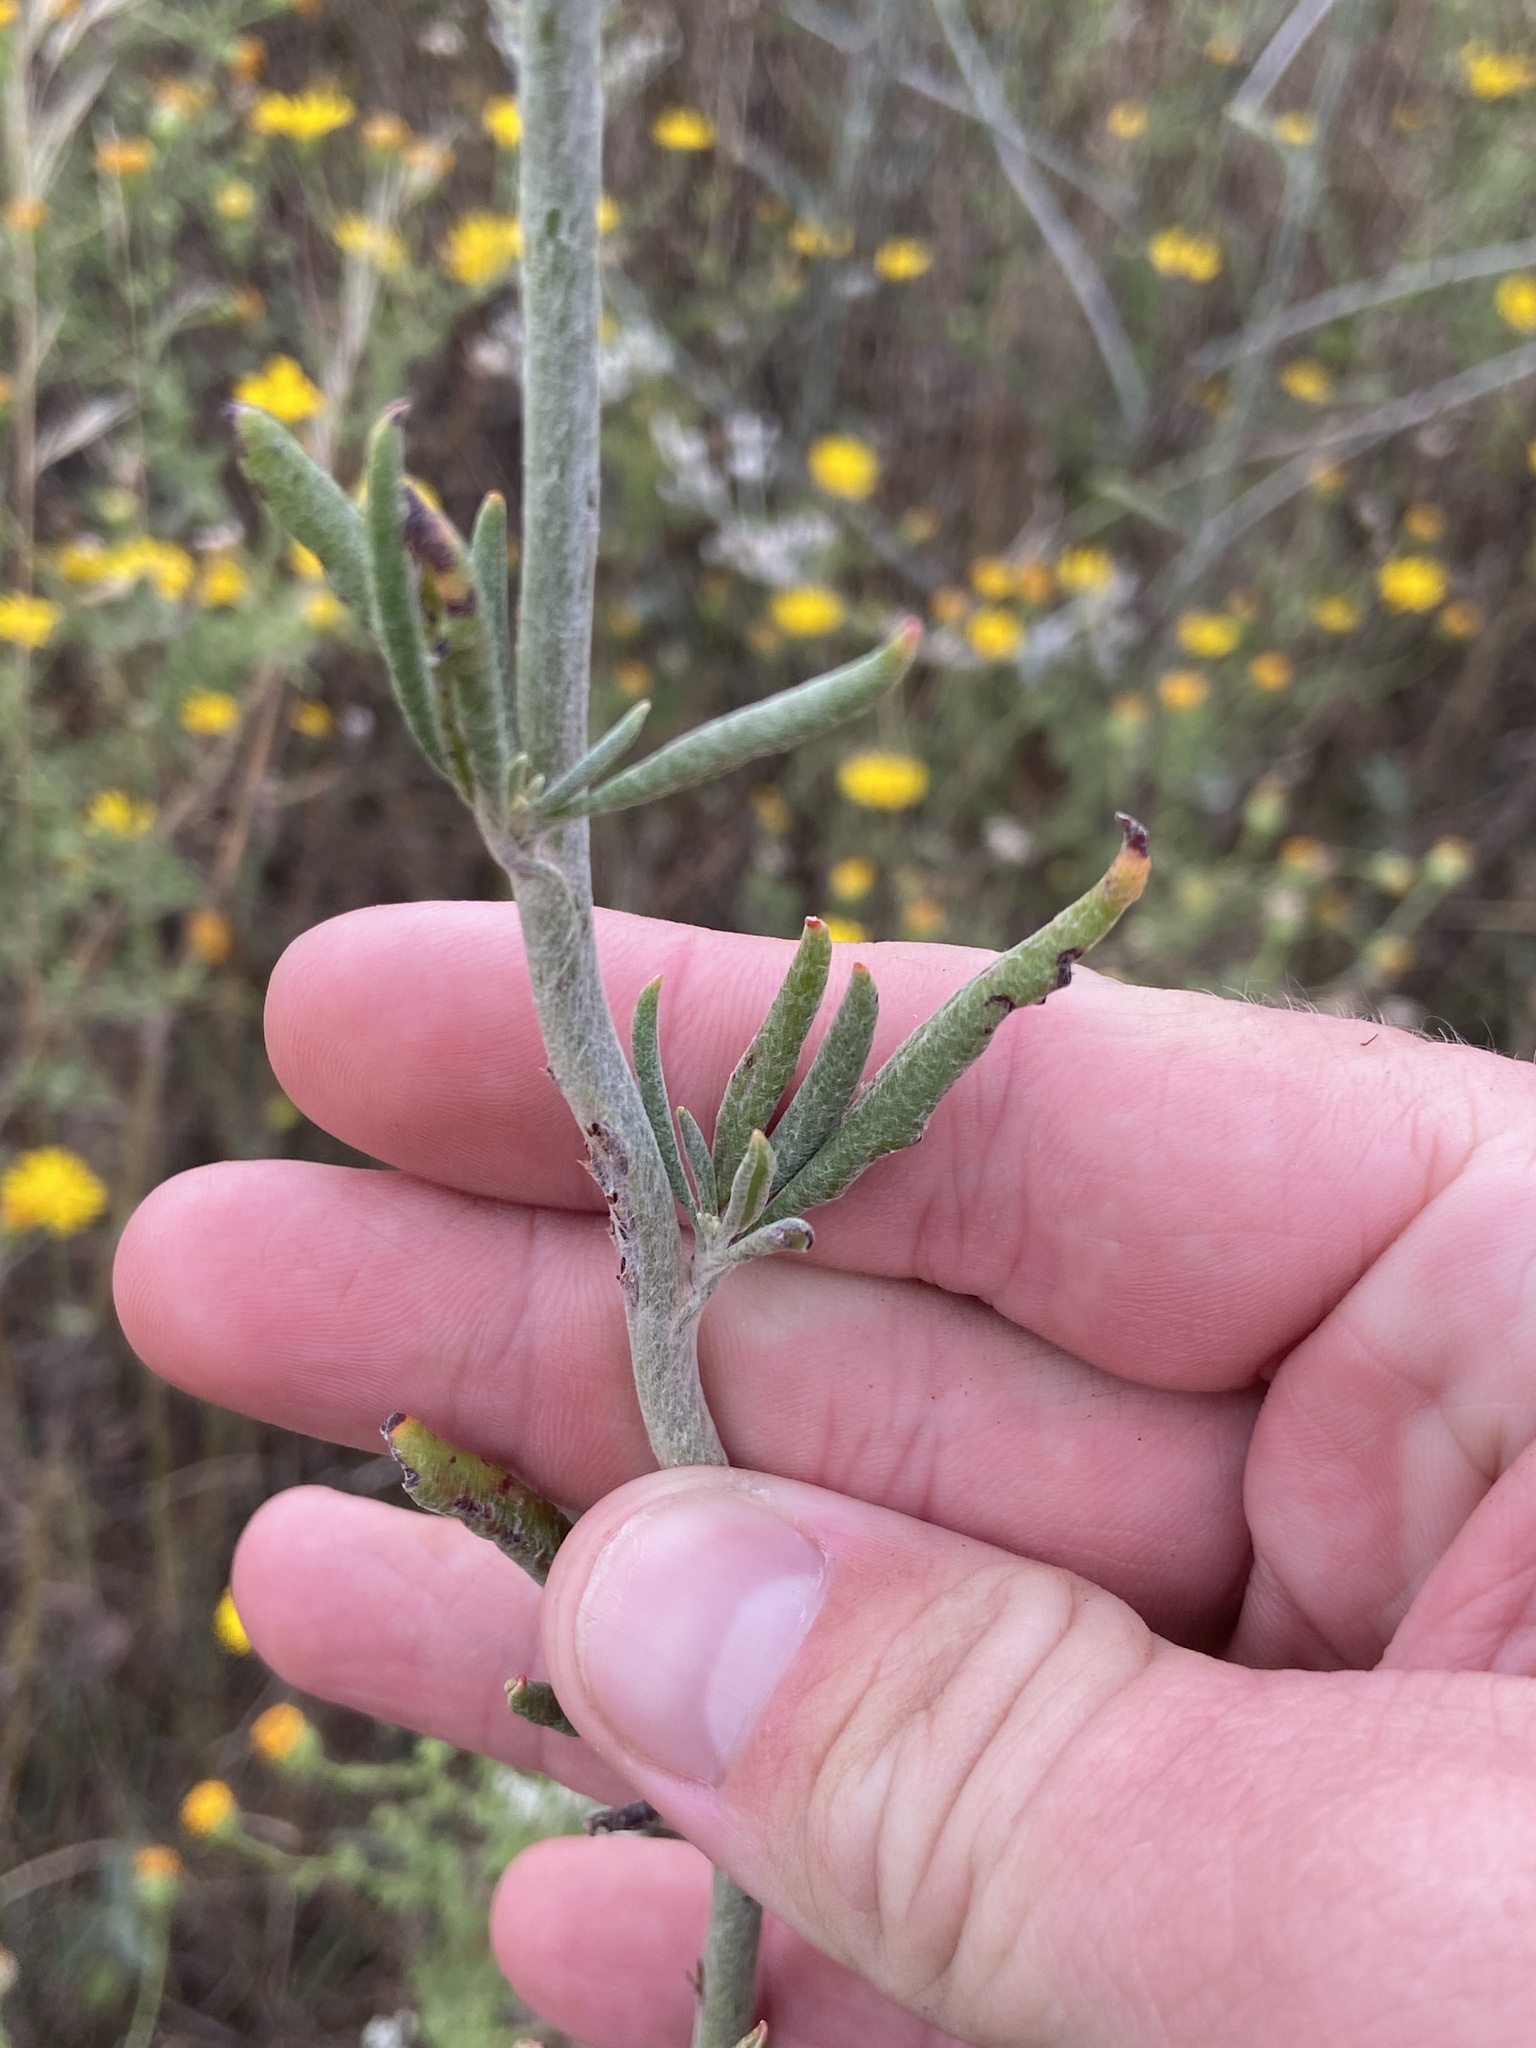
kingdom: Plantae
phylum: Tracheophyta
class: Magnoliopsida
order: Caryophyllales
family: Polygonaceae
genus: Eriogonum
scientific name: Eriogonum annuum
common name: Annual wild buckwheat
